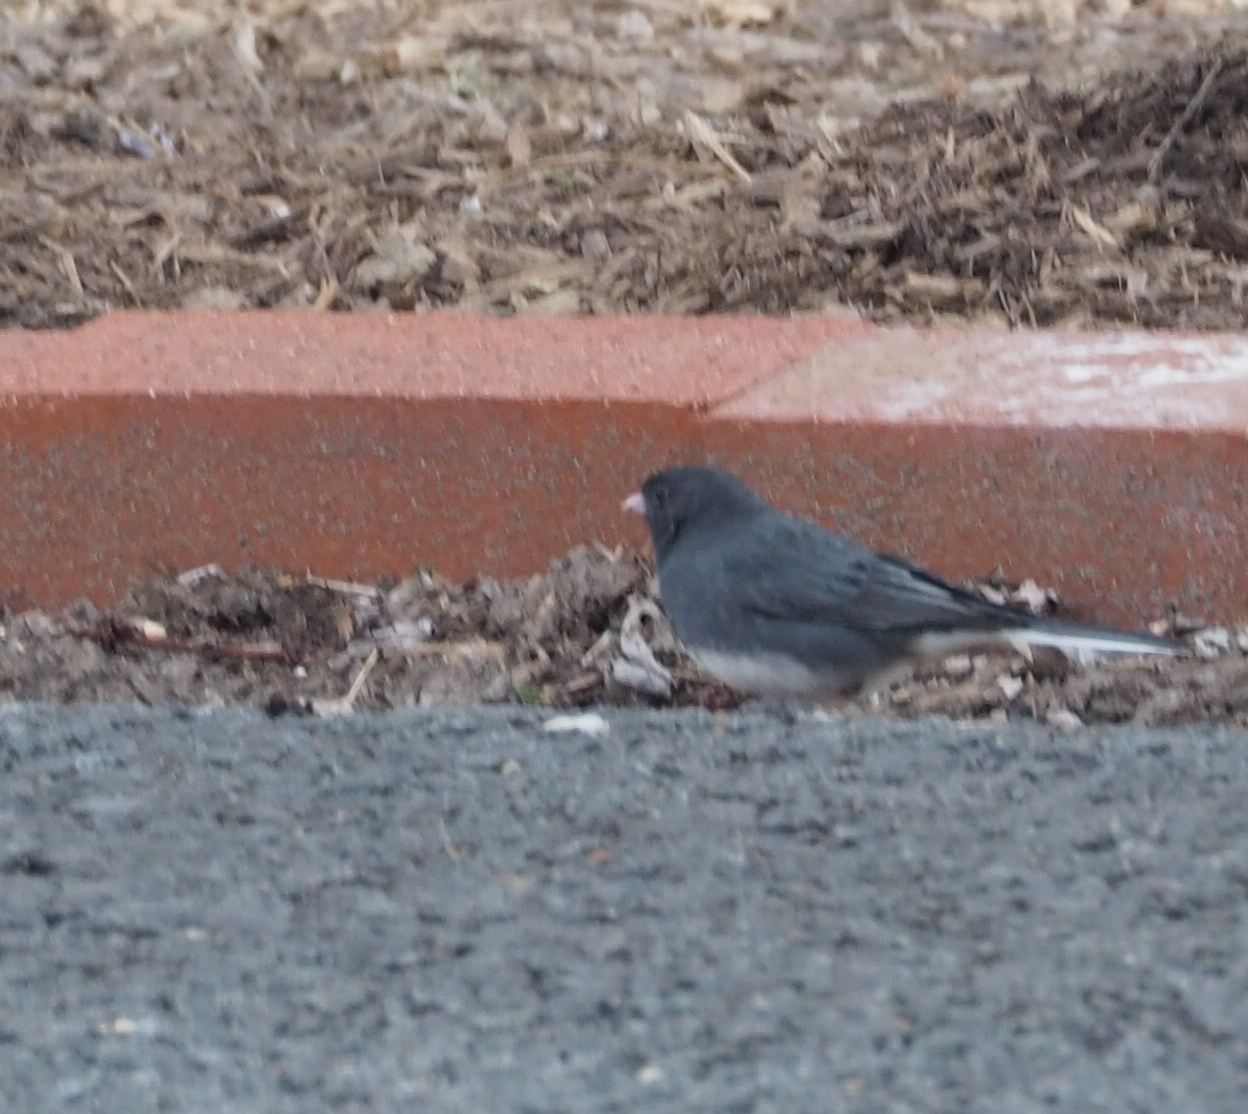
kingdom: Animalia
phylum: Chordata
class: Aves
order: Passeriformes
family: Passerellidae
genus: Junco
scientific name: Junco hyemalis
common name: Dark-eyed junco
